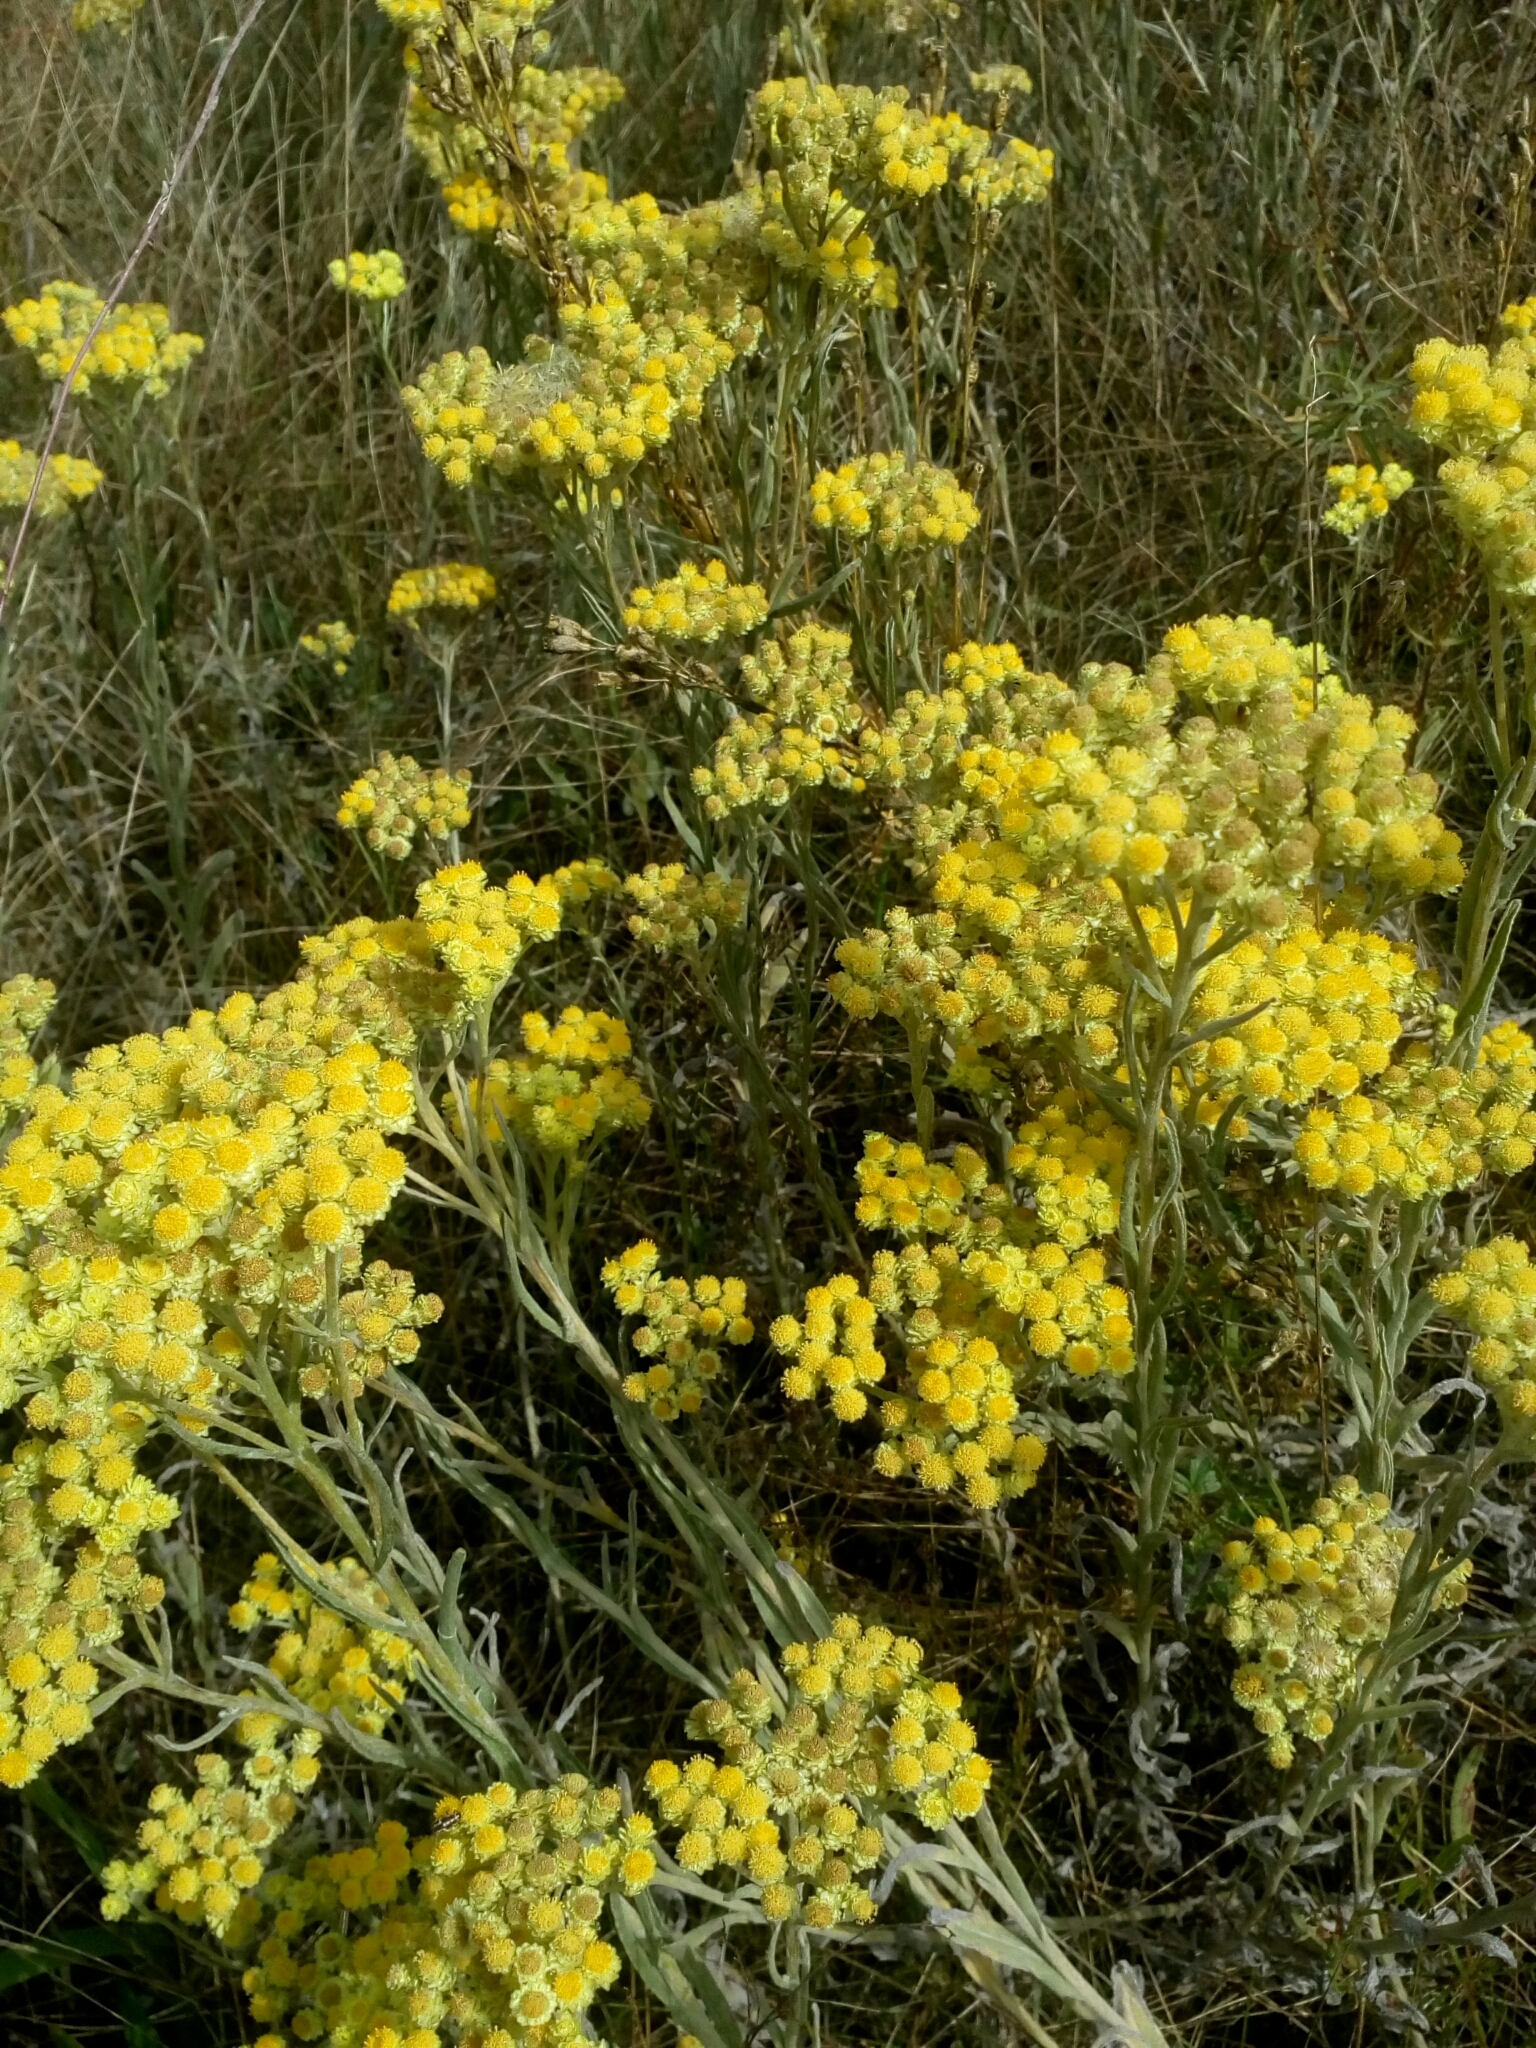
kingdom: Plantae
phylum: Tracheophyta
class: Magnoliopsida
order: Asterales
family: Asteraceae
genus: Helichrysum
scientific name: Helichrysum arenarium
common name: Strawflower
